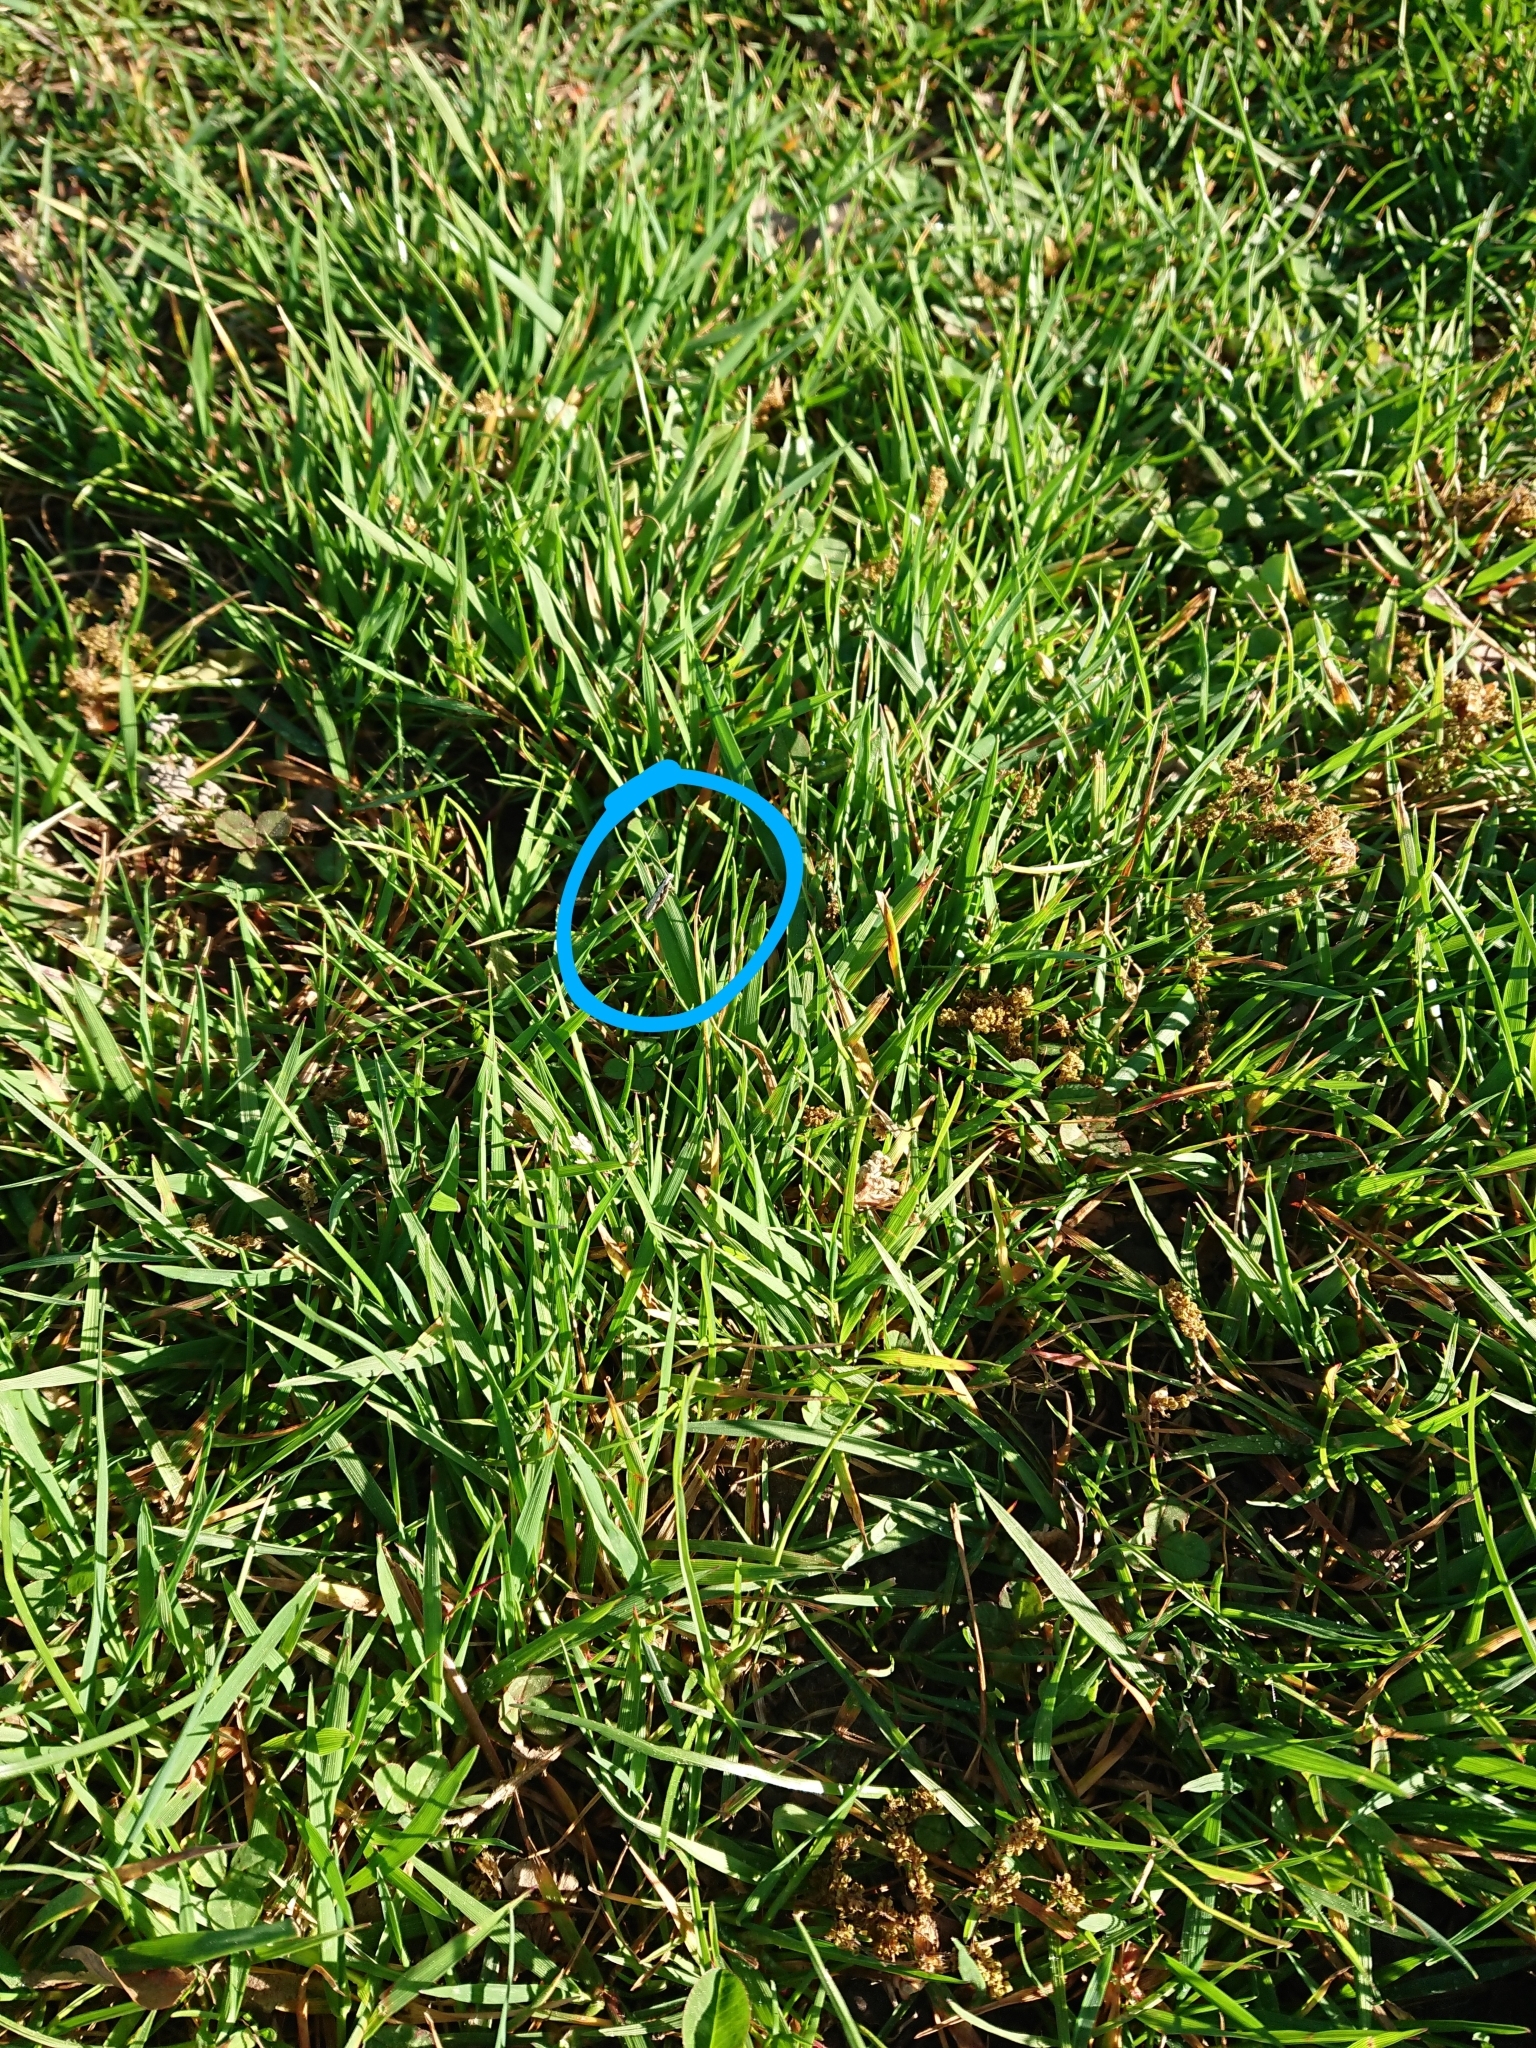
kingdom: Animalia
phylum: Arthropoda
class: Insecta
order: Lepidoptera
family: Tineidae
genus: Erechthias
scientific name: Erechthias fulguritella
